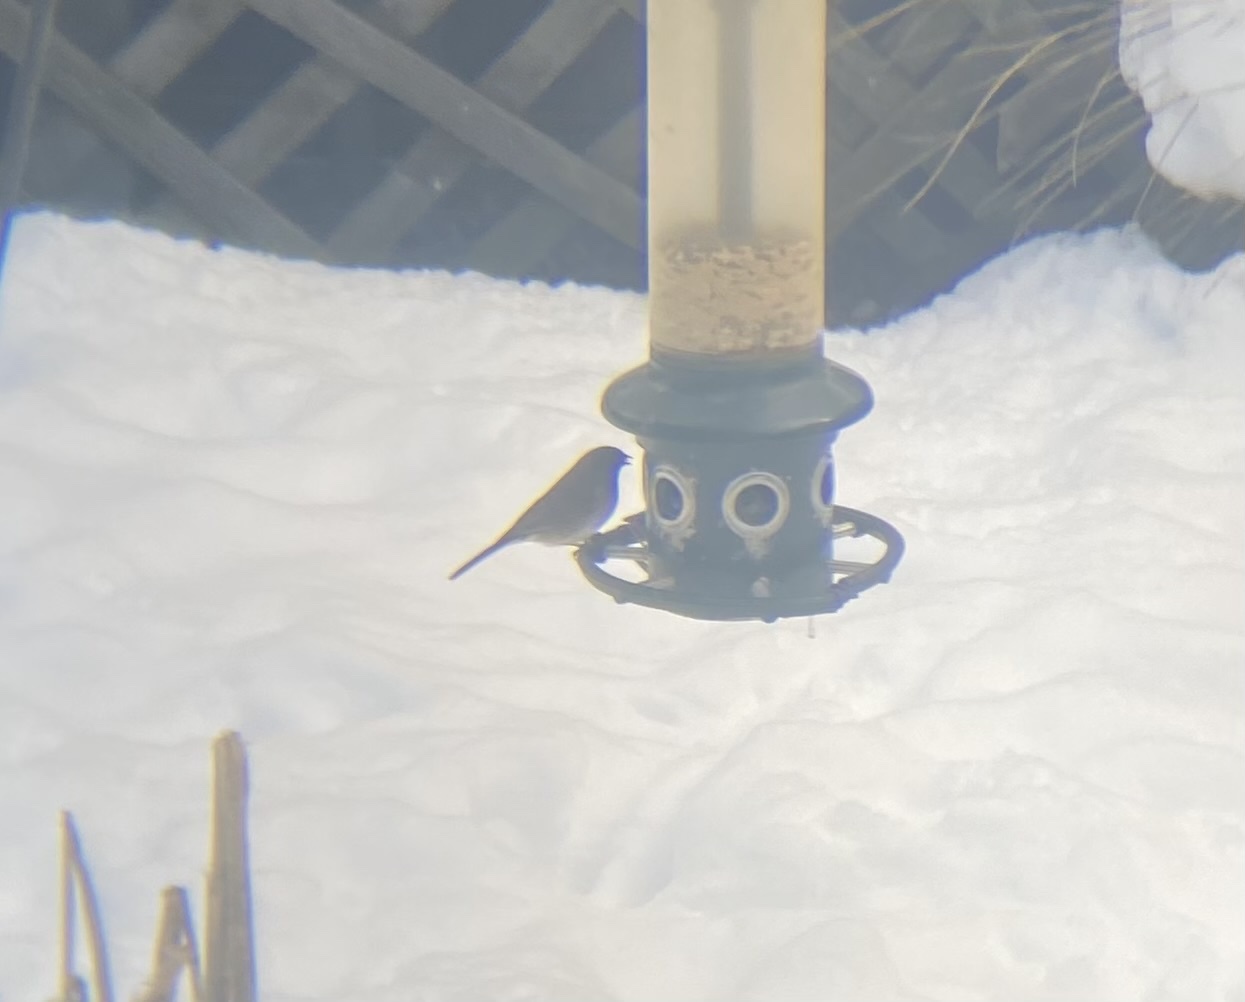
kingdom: Animalia
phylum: Chordata
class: Aves
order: Passeriformes
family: Passerellidae
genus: Junco
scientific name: Junco hyemalis
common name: Dark-eyed junco
